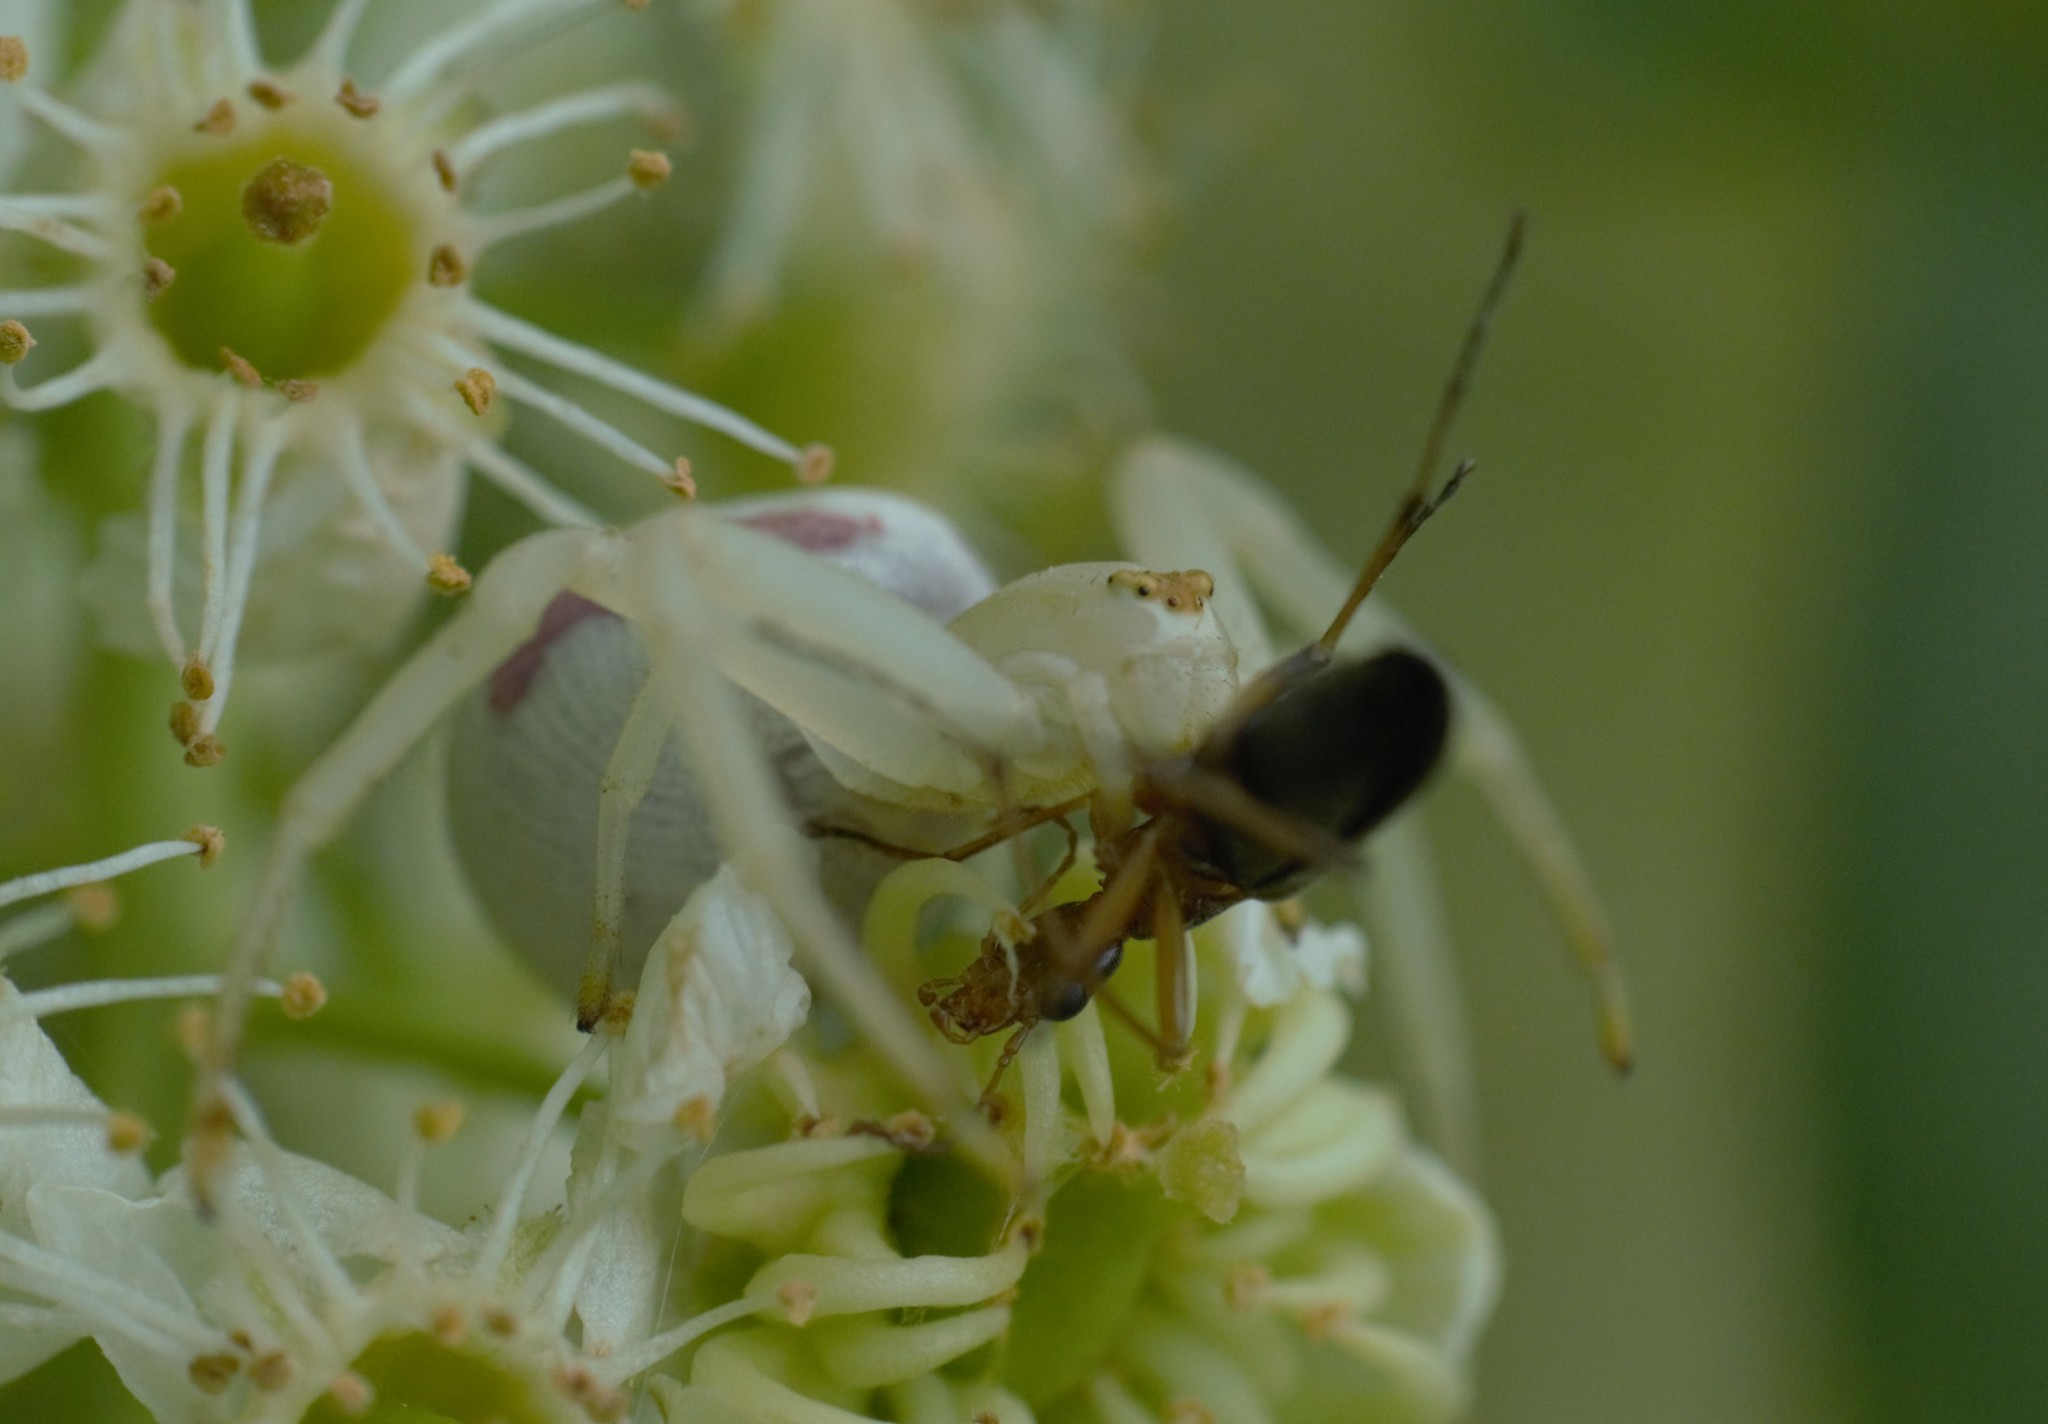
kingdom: Animalia
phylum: Arthropoda
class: Arachnida
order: Araneae
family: Thomisidae
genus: Misumena
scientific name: Misumena vatia
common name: Goldenrod crab spider
